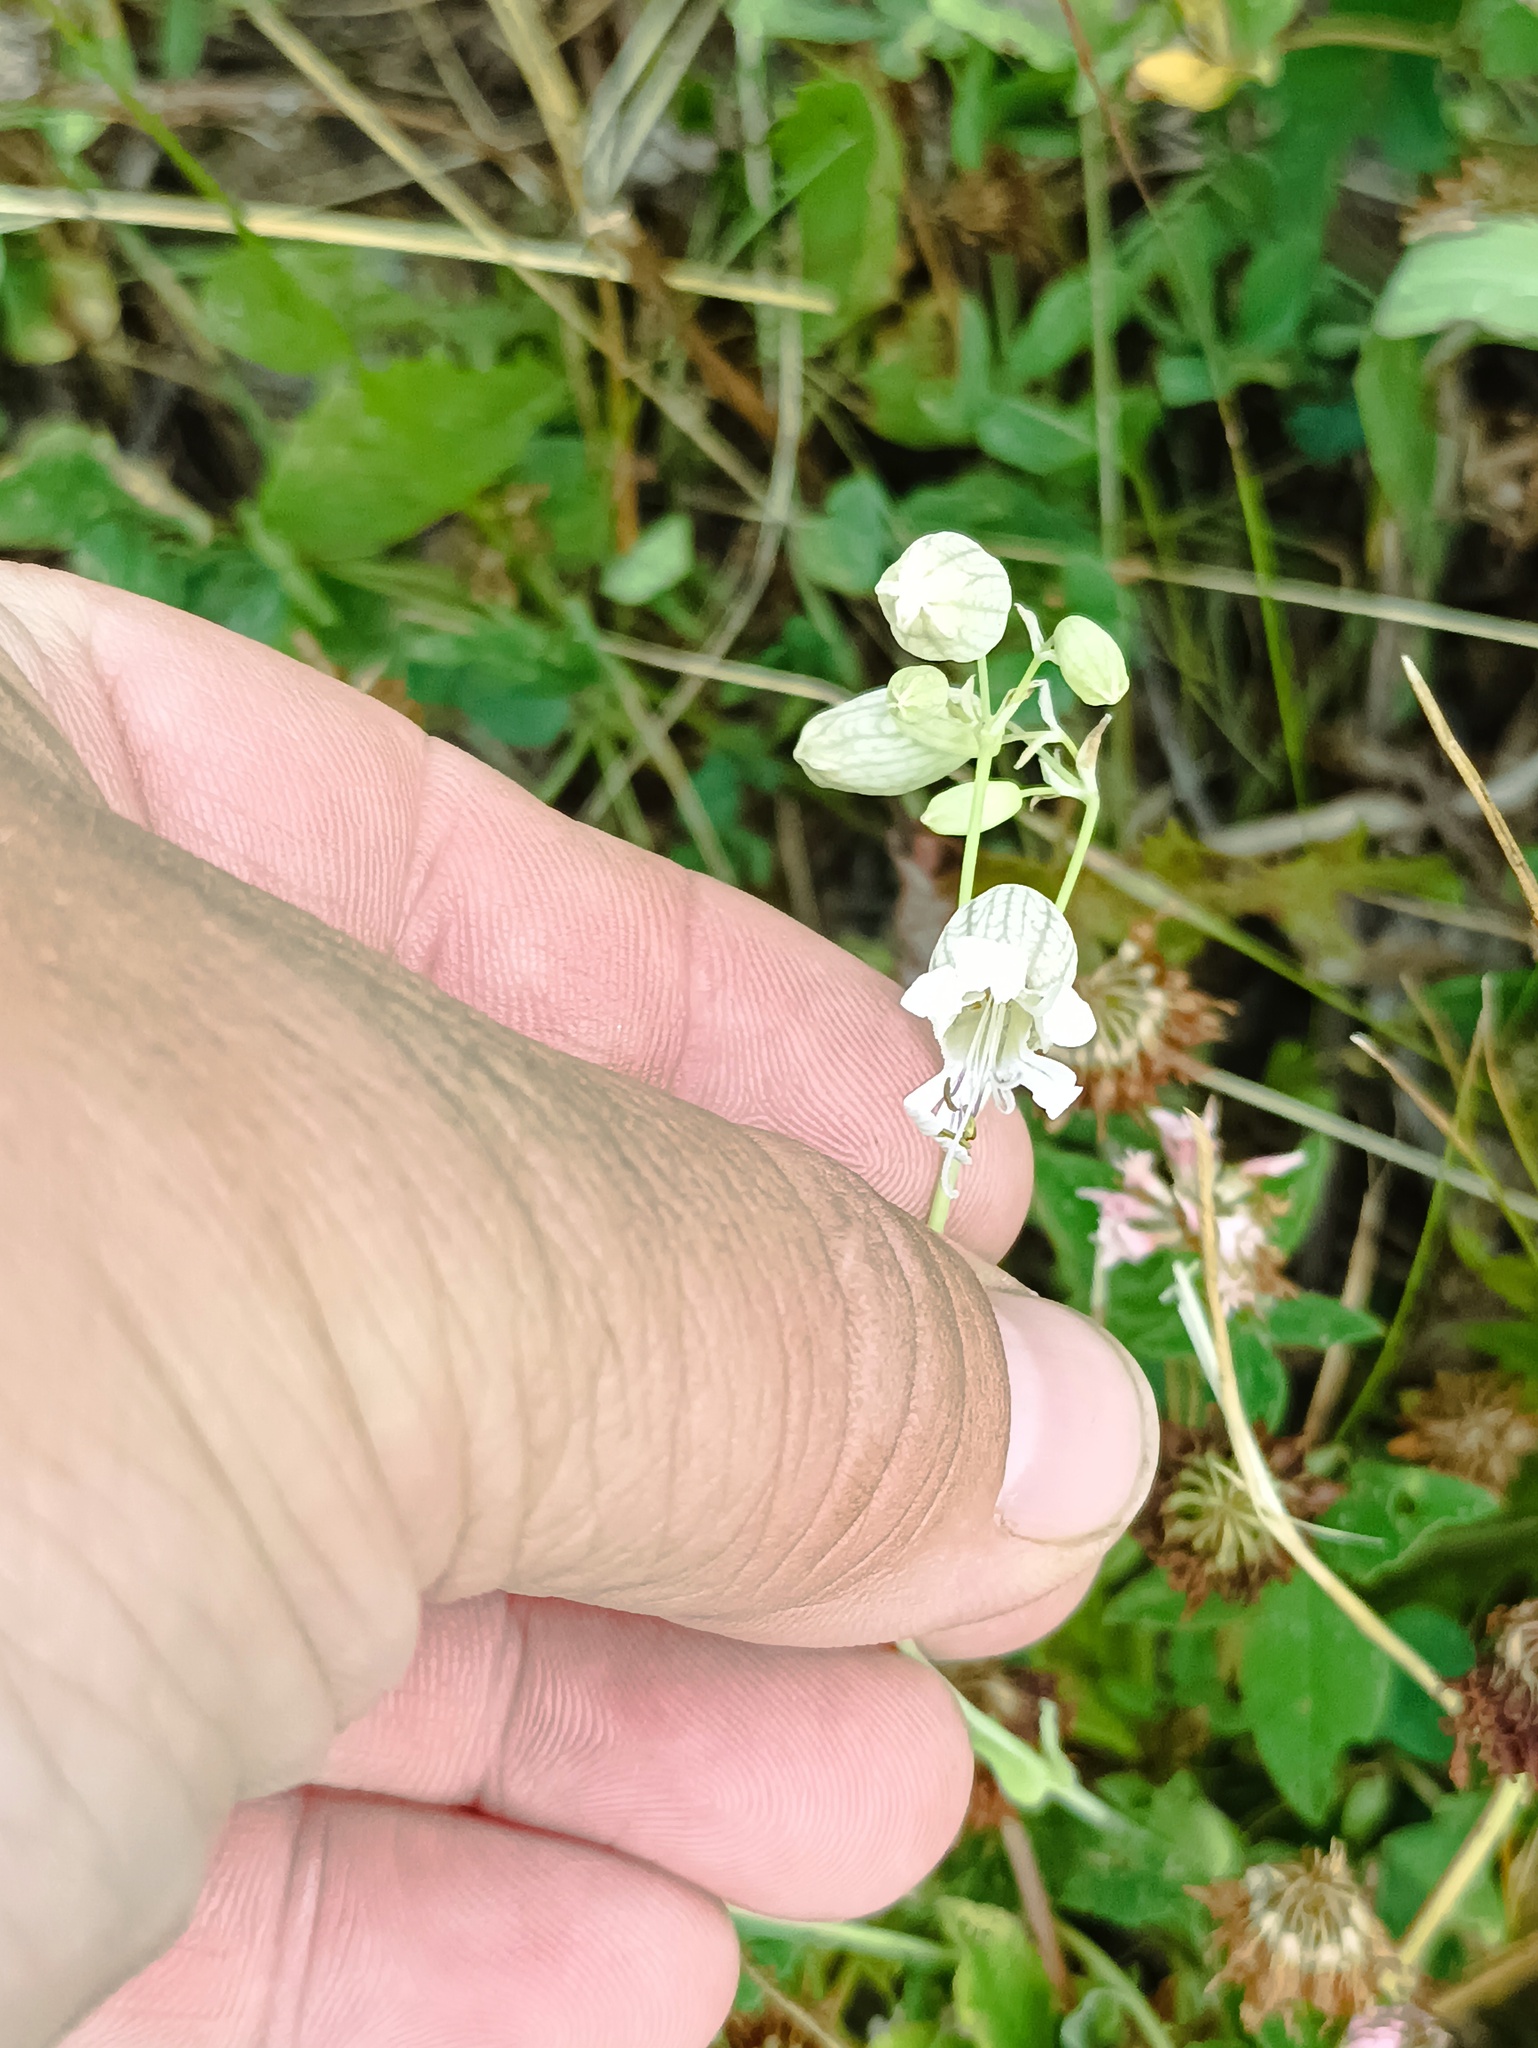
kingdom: Plantae
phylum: Tracheophyta
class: Magnoliopsida
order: Caryophyllales
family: Caryophyllaceae
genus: Silene
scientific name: Silene vulgaris
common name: Bladder campion
